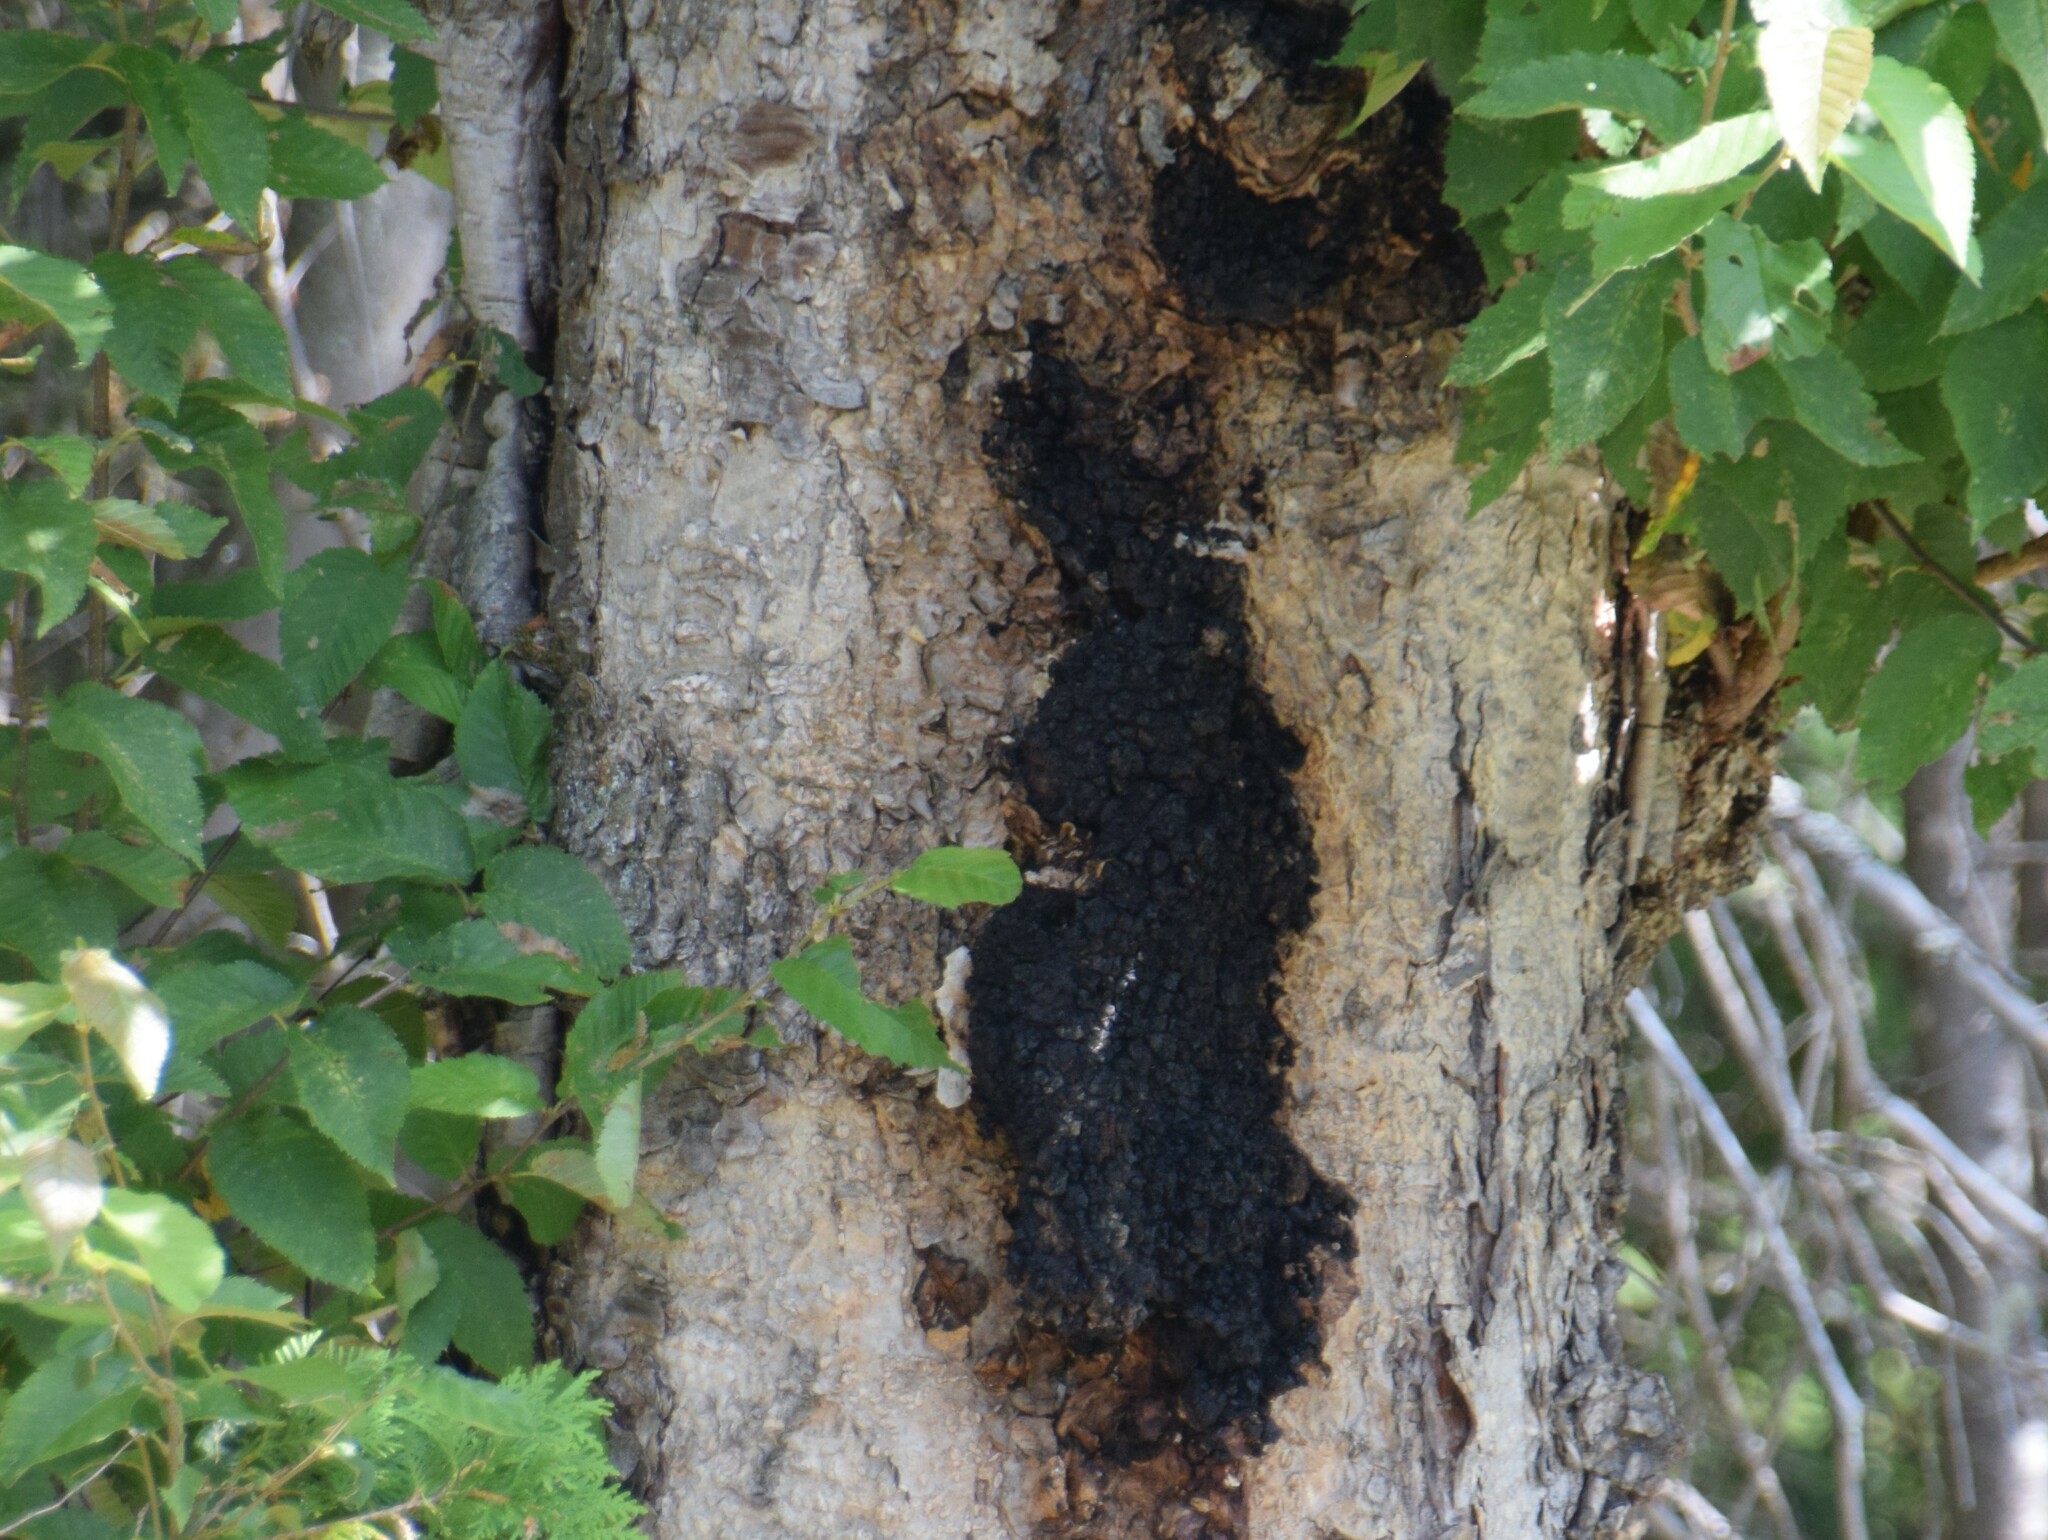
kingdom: Fungi
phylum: Basidiomycota
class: Agaricomycetes
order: Hymenochaetales
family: Hymenochaetaceae
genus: Inonotus
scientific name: Inonotus obliquus
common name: Chaga
